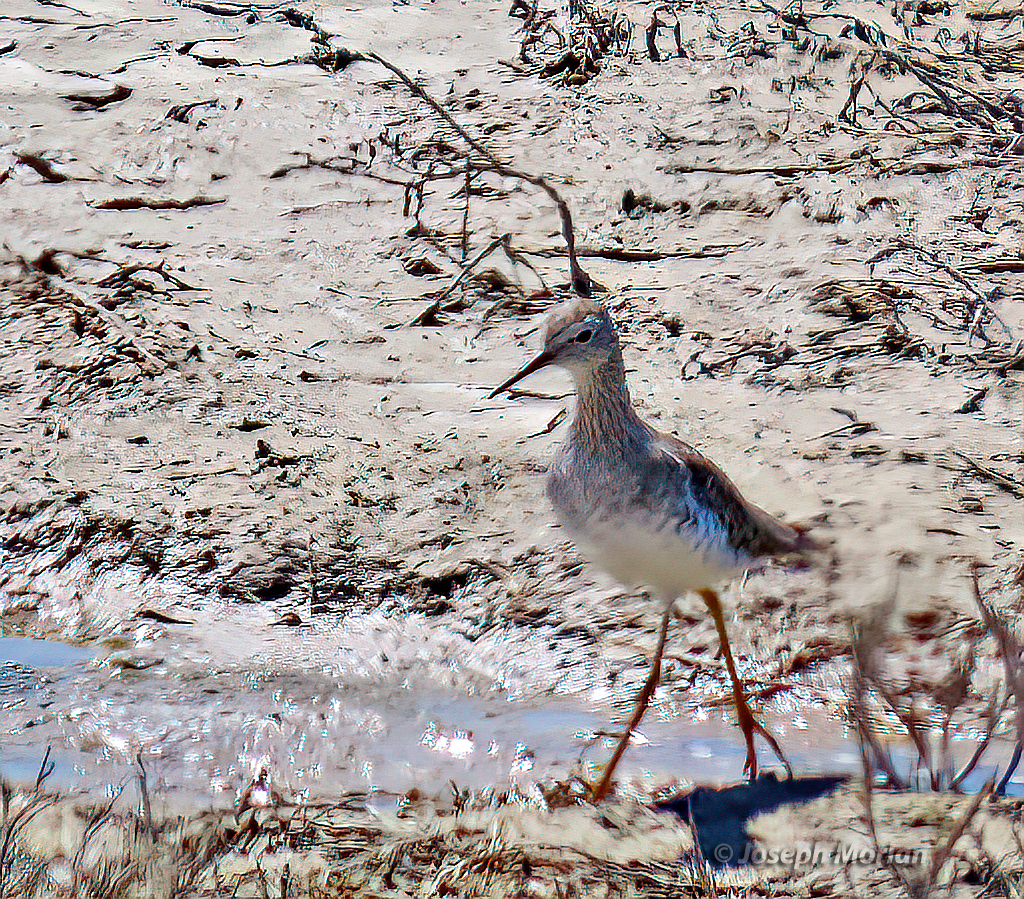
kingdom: Animalia
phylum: Chordata
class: Aves
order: Charadriiformes
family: Scolopacidae
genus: Tringa
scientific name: Tringa flavipes
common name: Lesser yellowlegs
